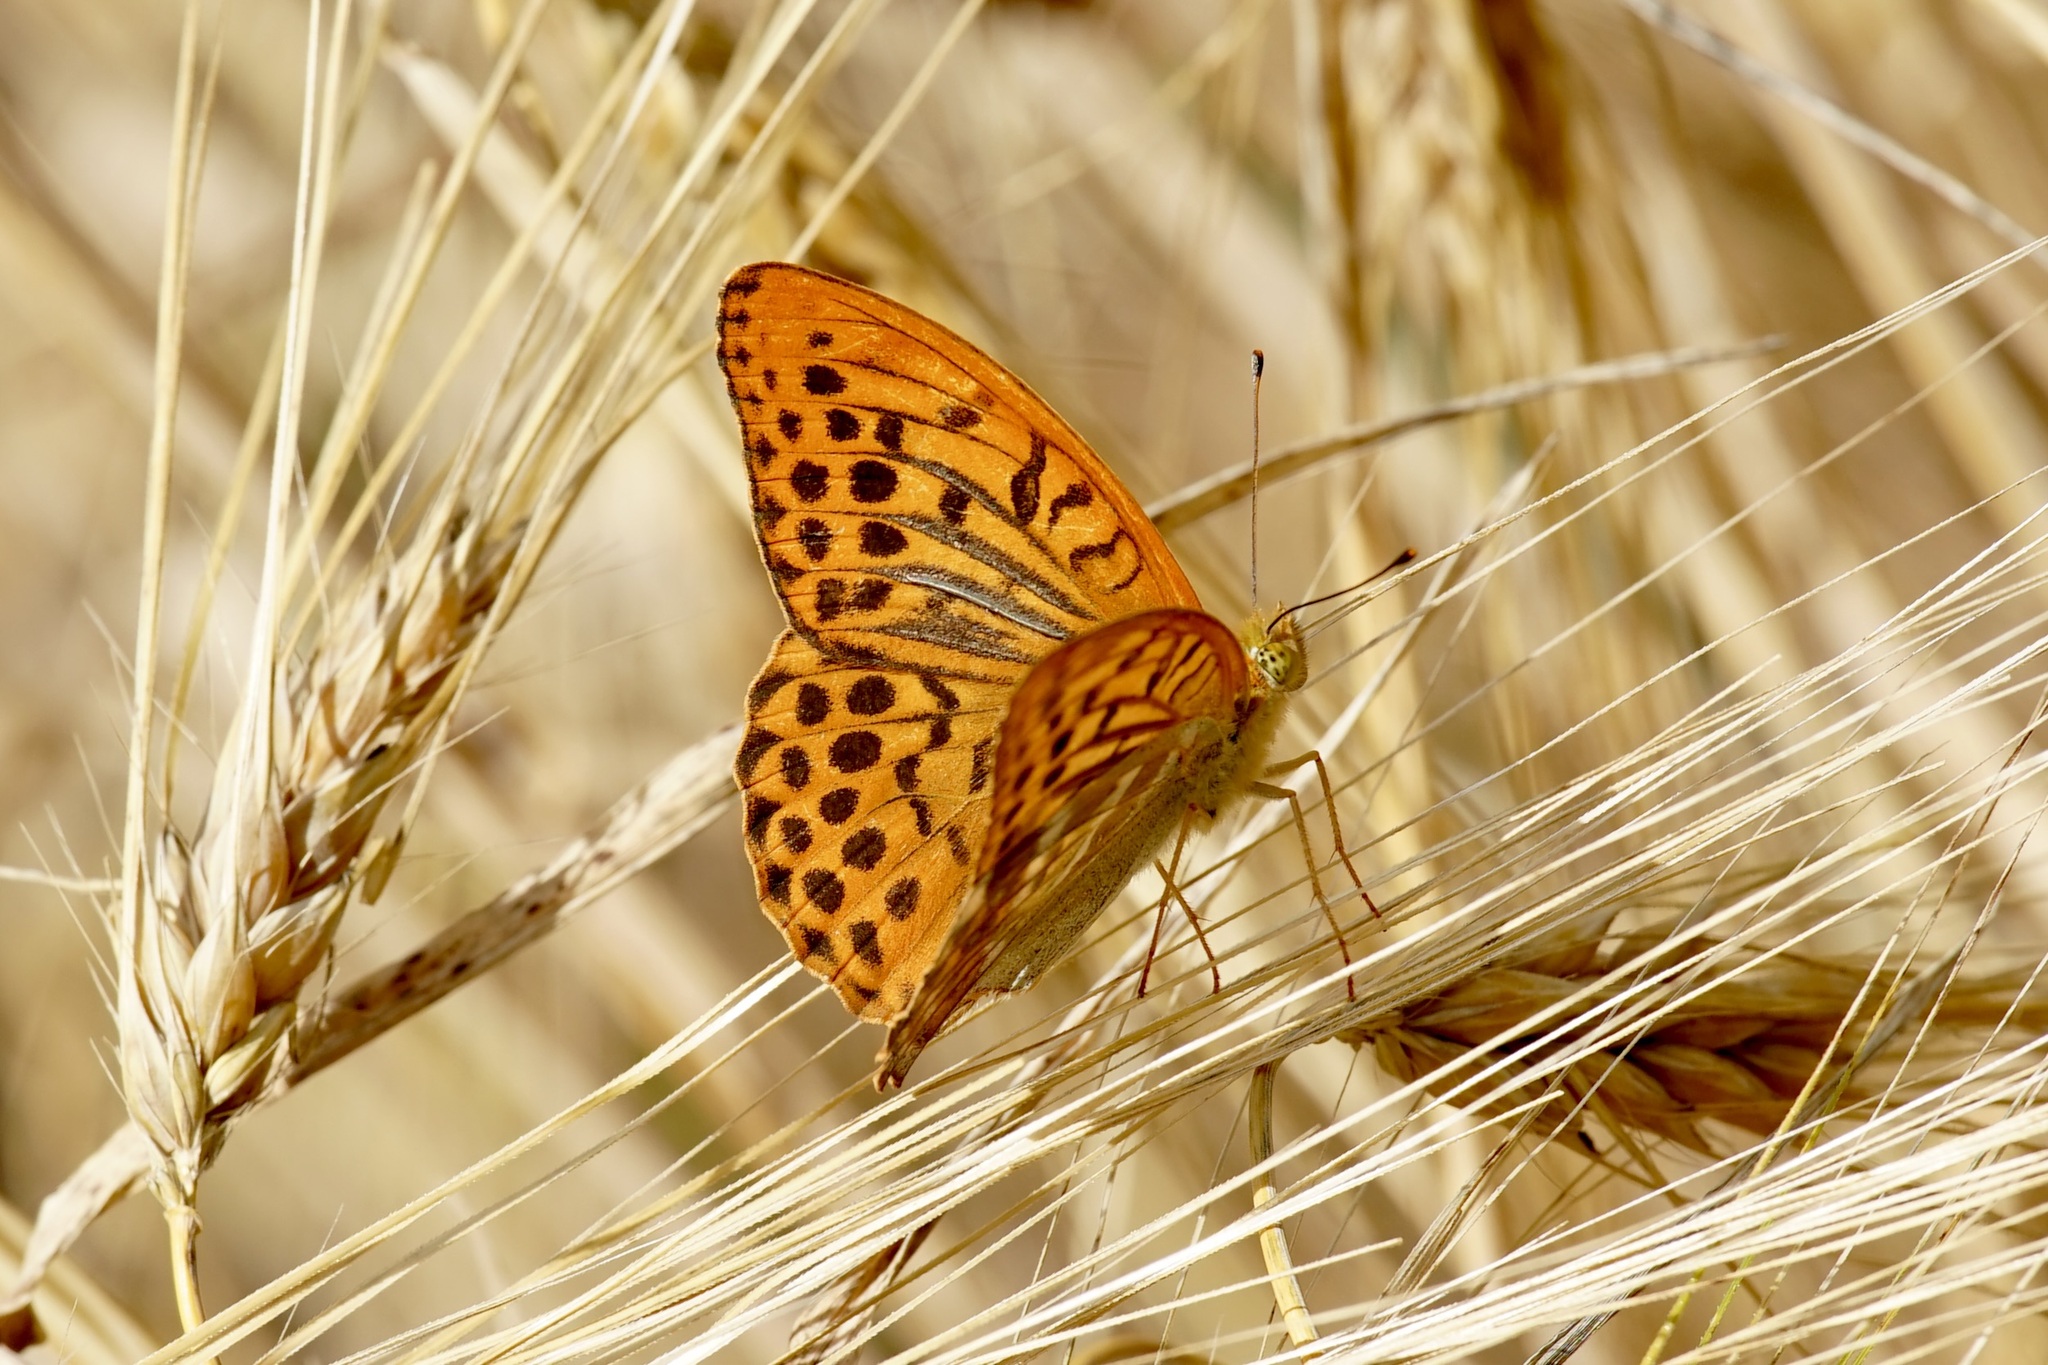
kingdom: Animalia
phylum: Arthropoda
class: Insecta
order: Lepidoptera
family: Nymphalidae
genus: Argynnis
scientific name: Argynnis paphia
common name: Silver-washed fritillary
